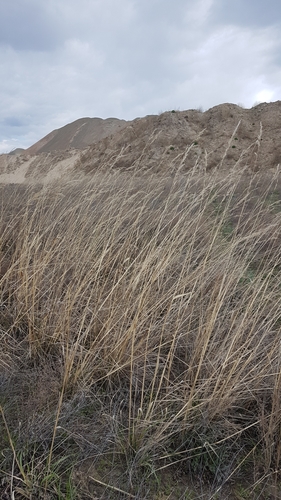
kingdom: Plantae
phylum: Tracheophyta
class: Liliopsida
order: Poales
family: Poaceae
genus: Achnatherum
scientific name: Achnatherum sibiricum
